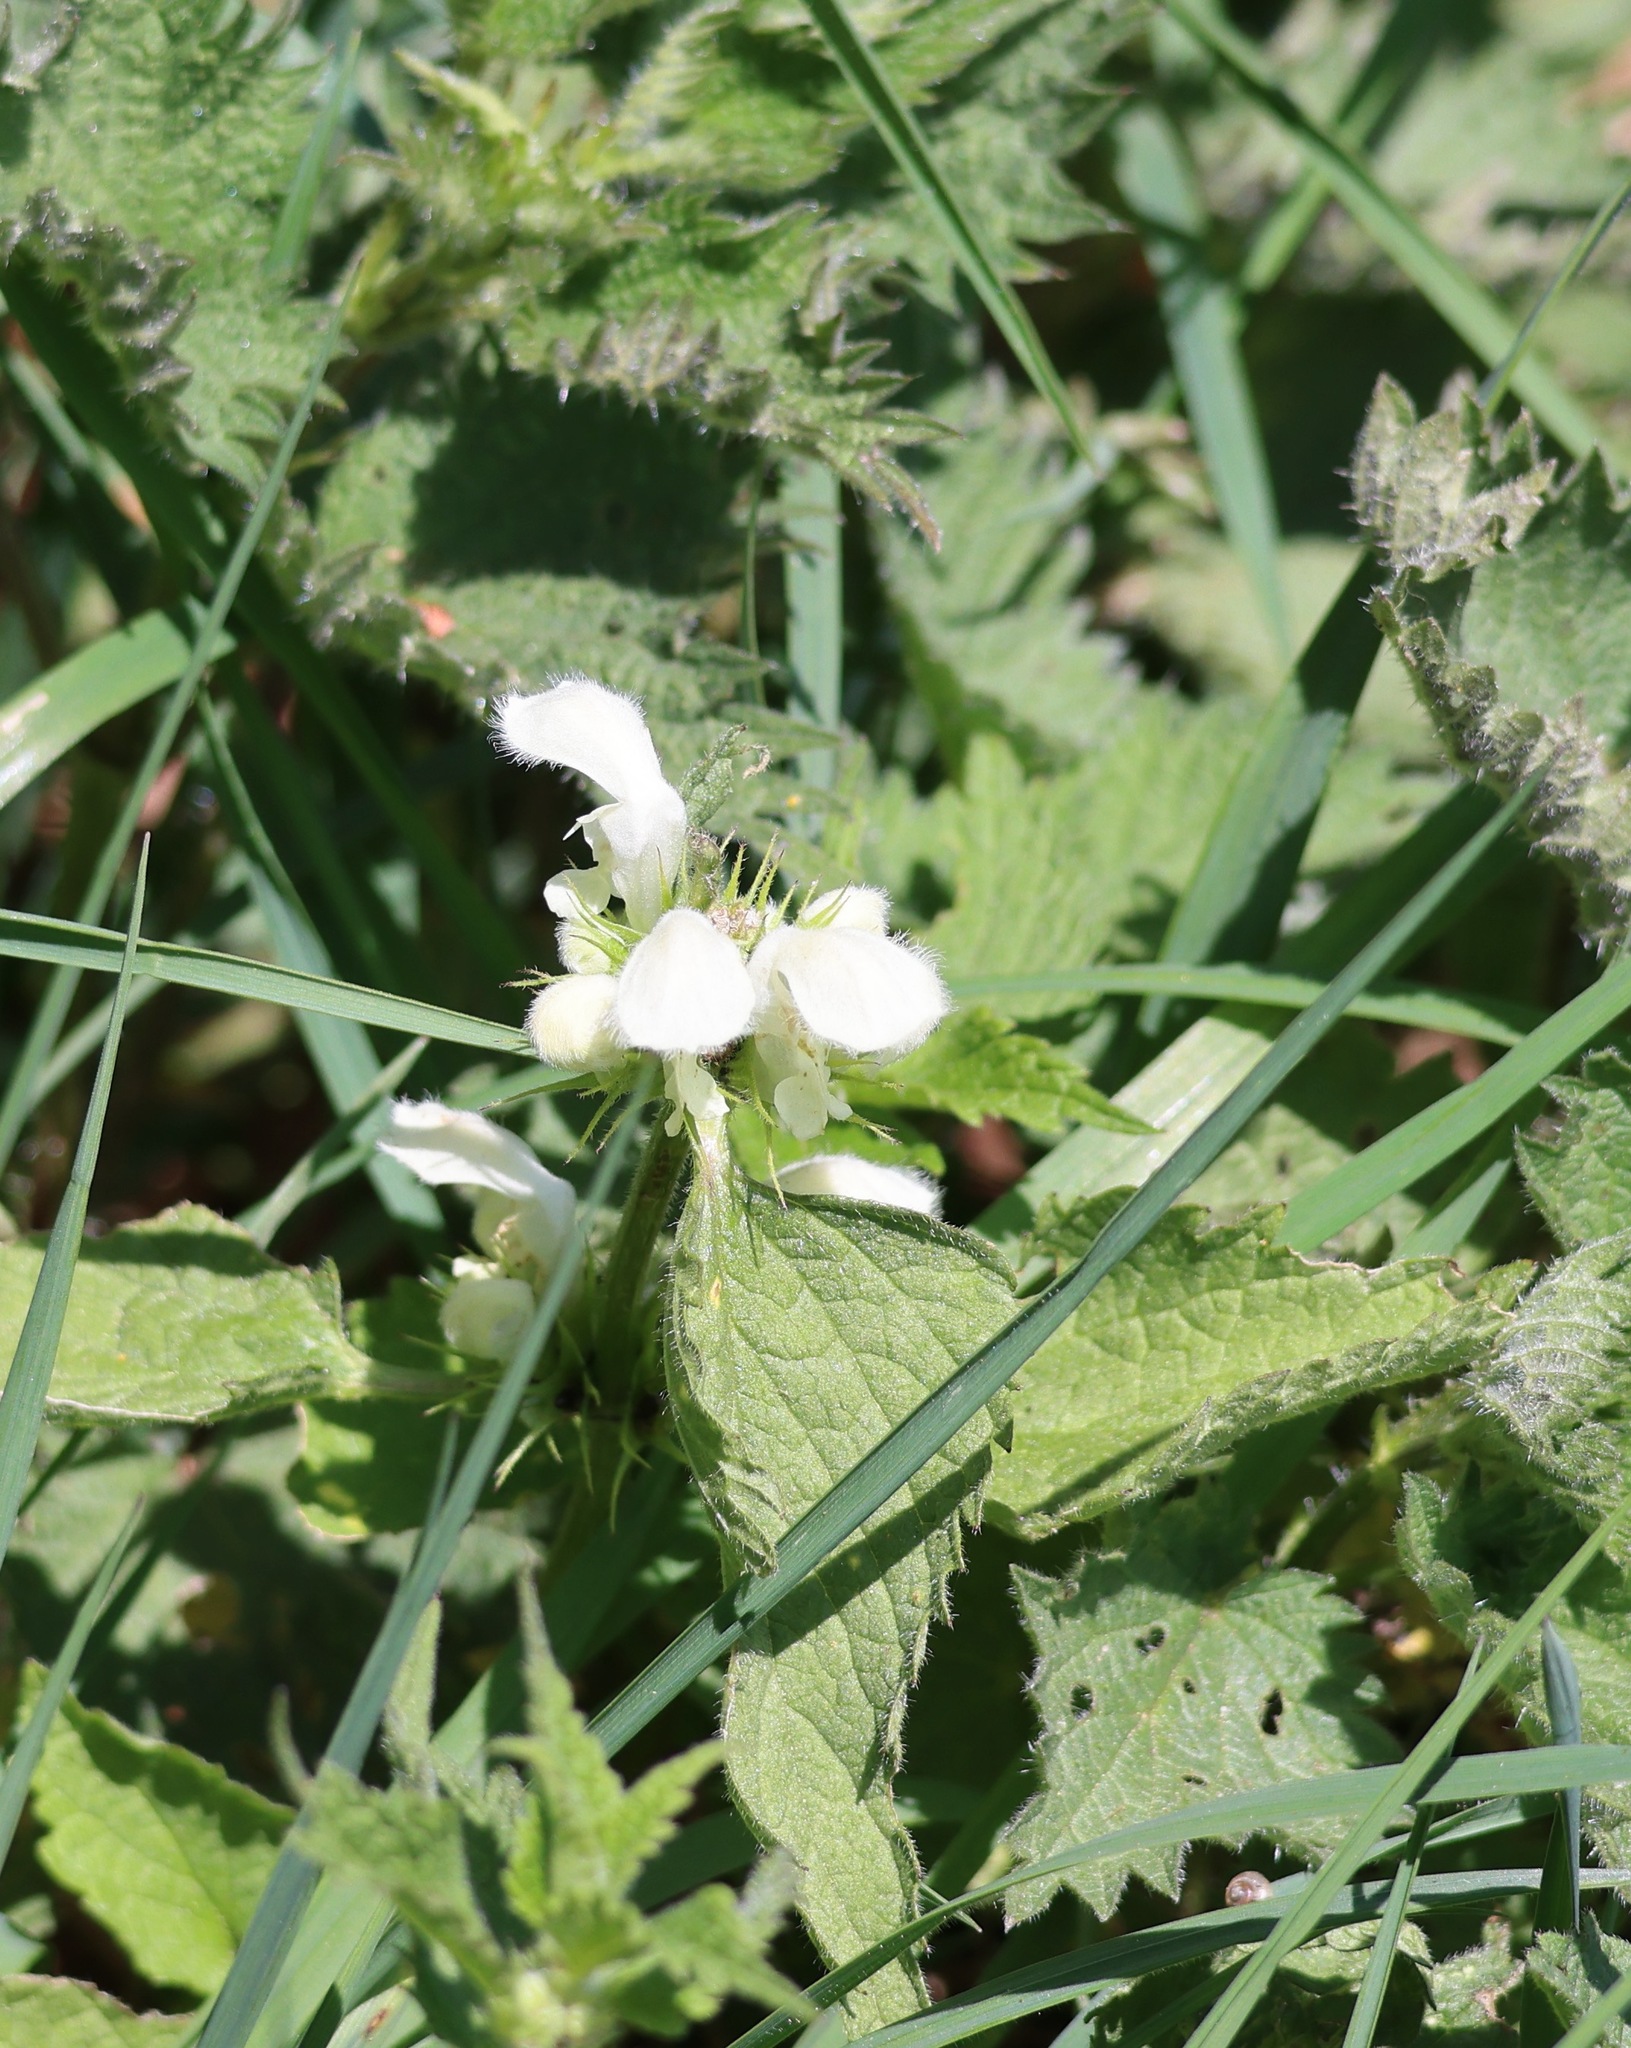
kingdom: Plantae
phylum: Tracheophyta
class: Magnoliopsida
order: Lamiales
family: Lamiaceae
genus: Lamium
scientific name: Lamium album
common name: White dead-nettle
